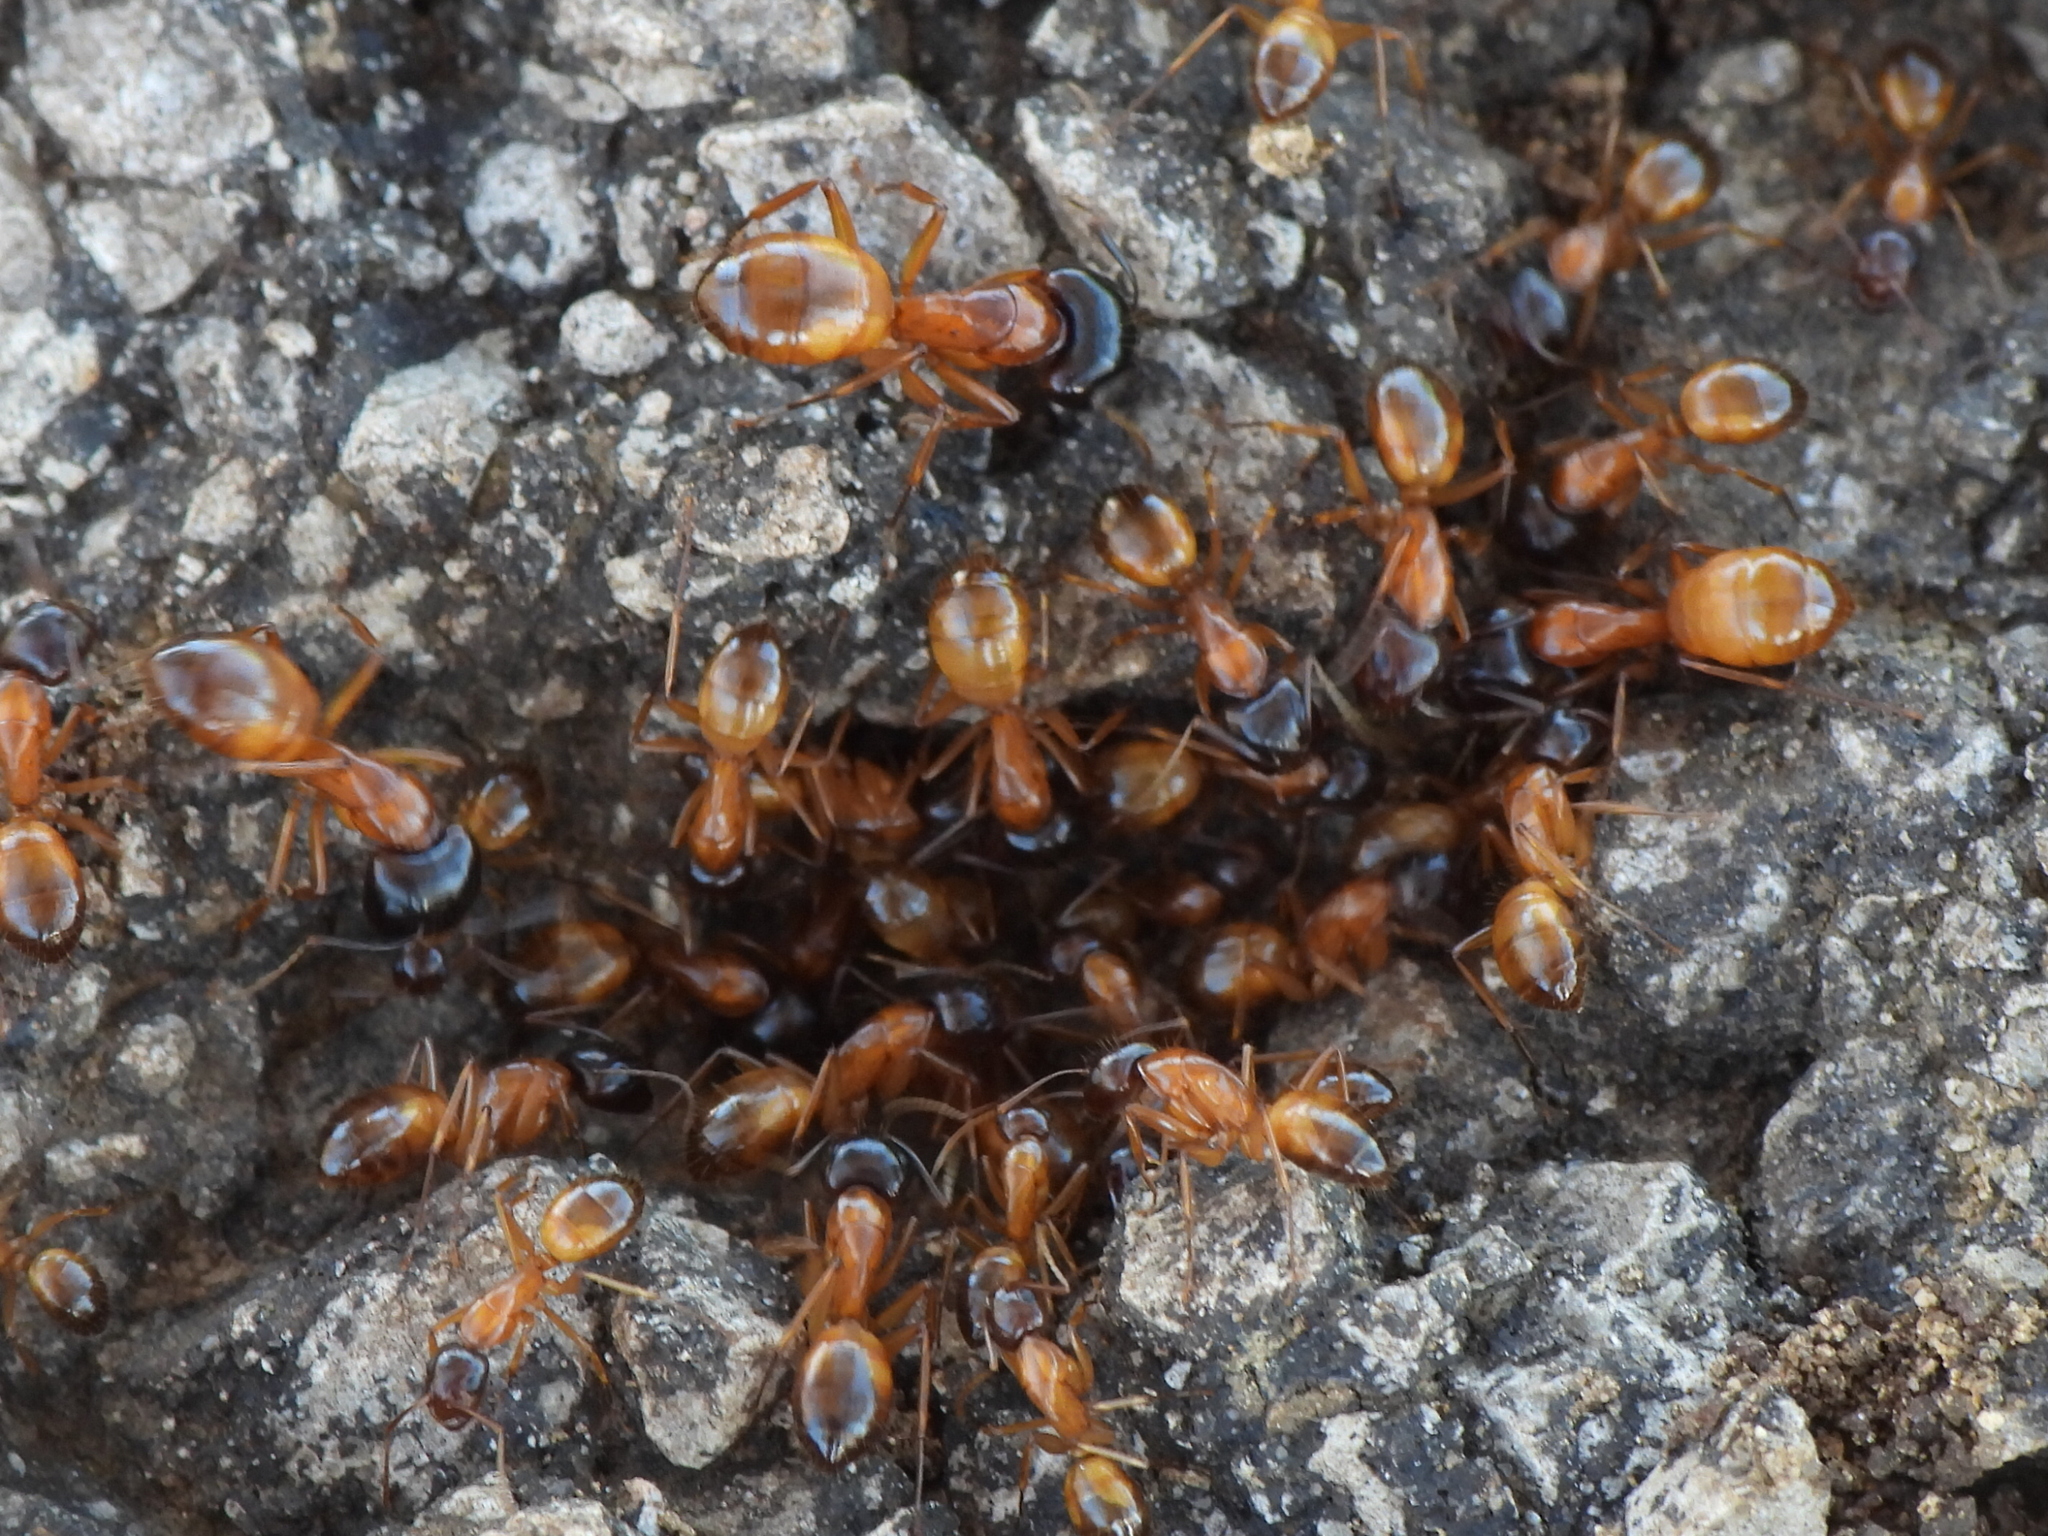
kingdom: Animalia
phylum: Arthropoda
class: Insecta
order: Hymenoptera
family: Formicidae
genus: Camponotus
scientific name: Camponotus sansabeanus
